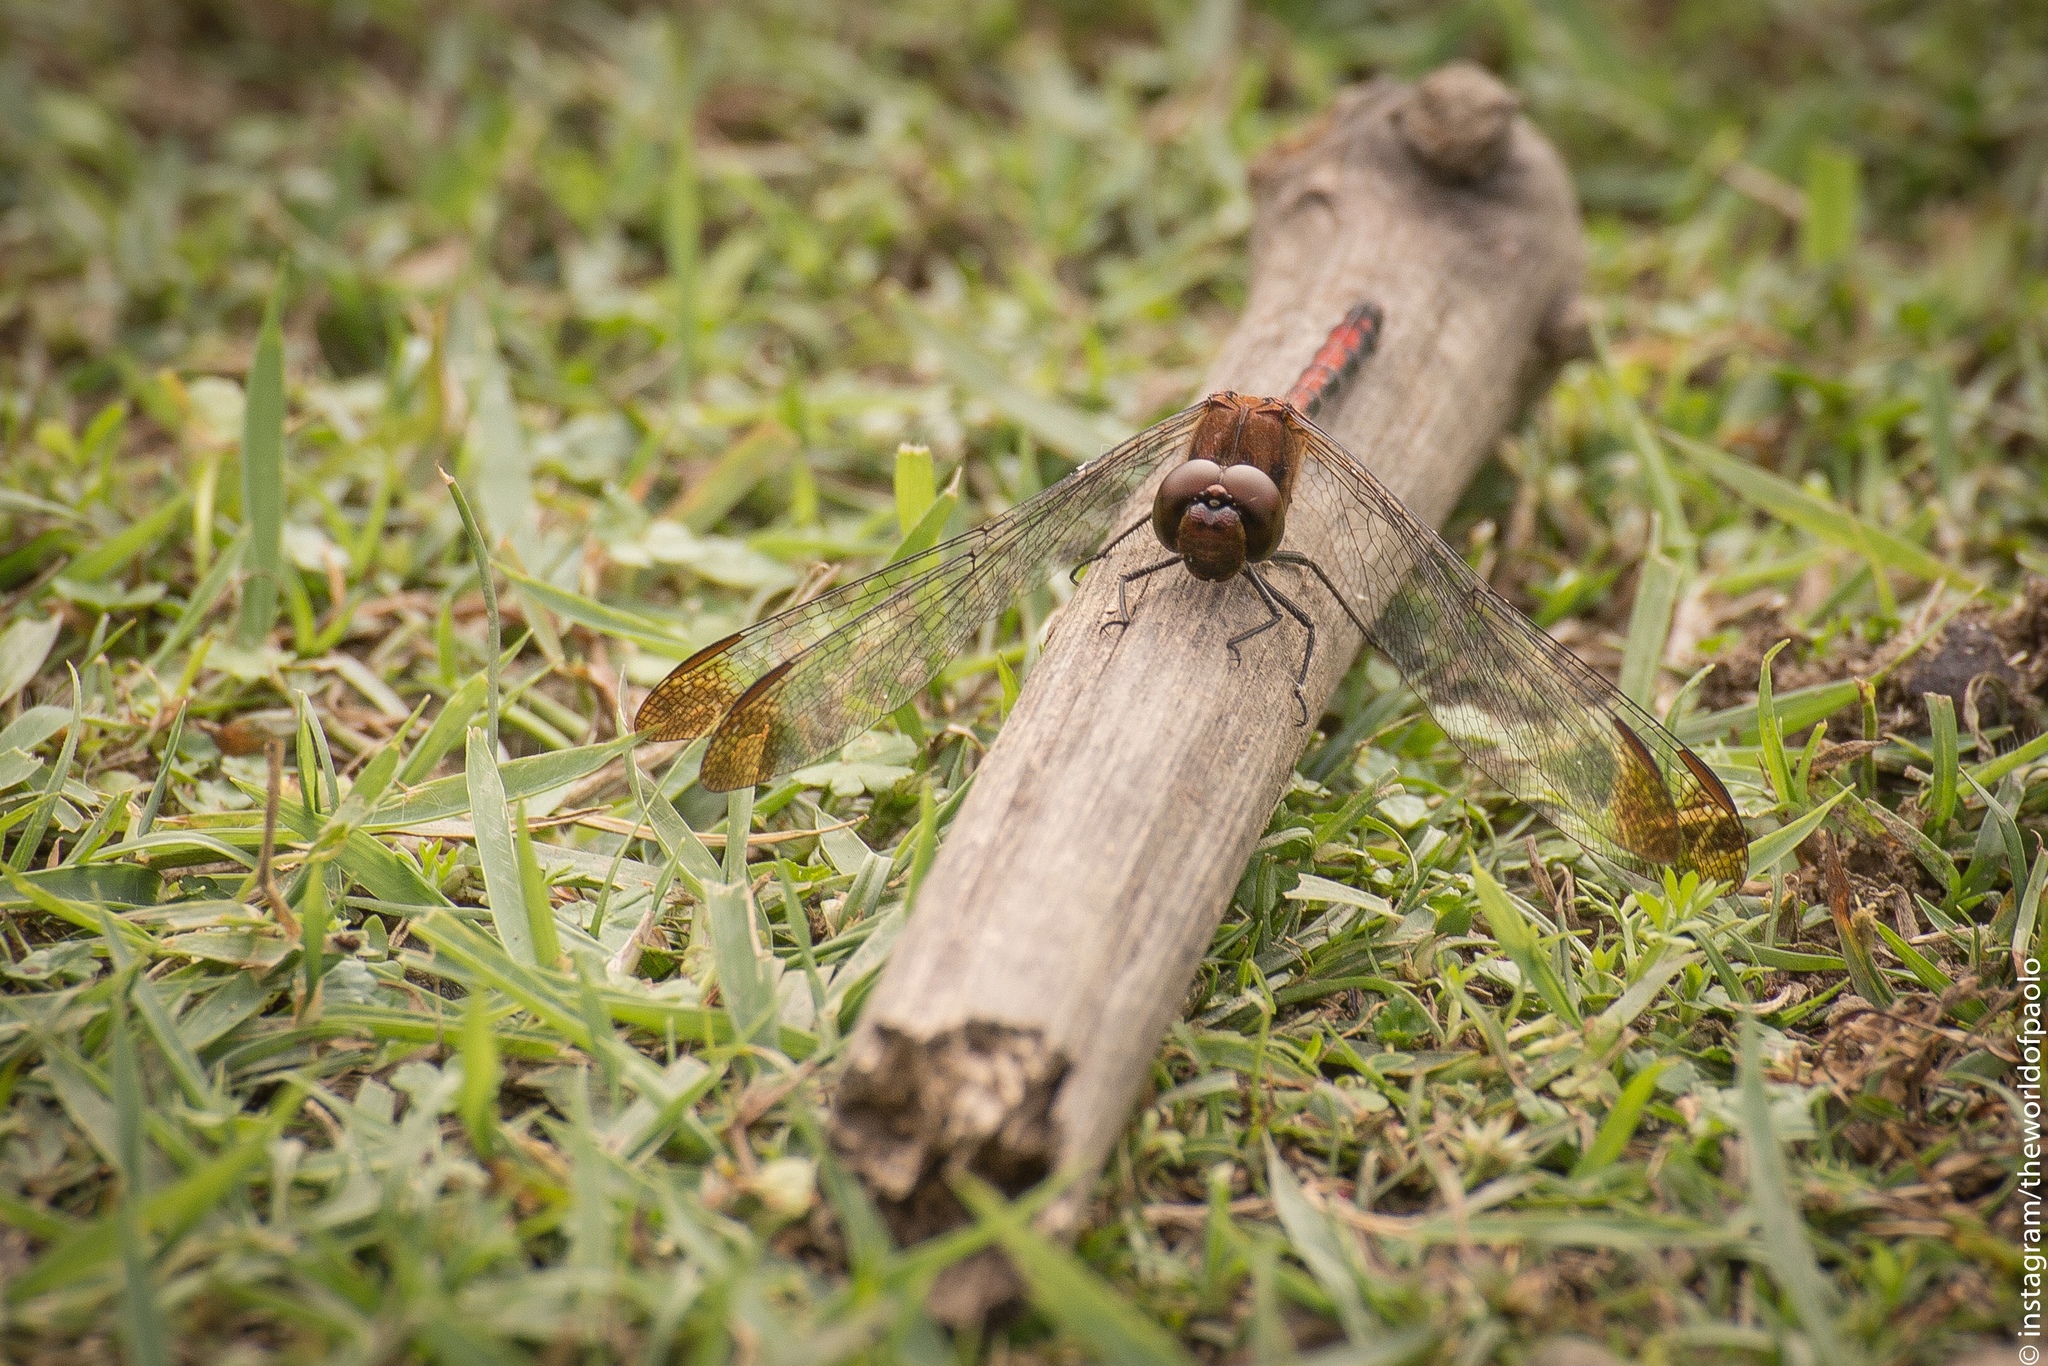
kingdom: Animalia
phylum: Arthropoda
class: Insecta
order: Odonata
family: Libellulidae
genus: Sympetrum
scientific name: Sympetrum infuscatum
